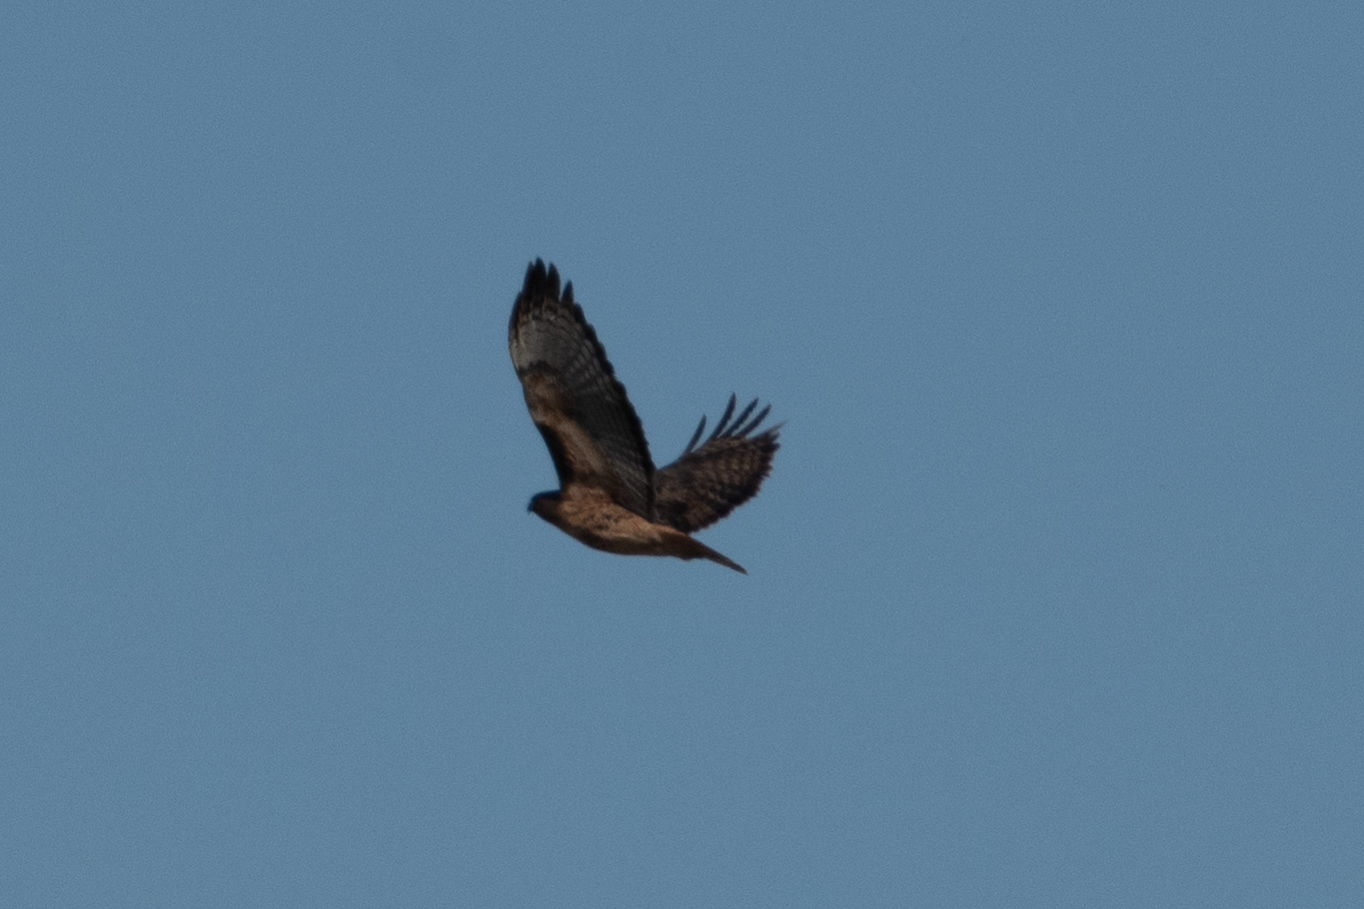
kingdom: Animalia
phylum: Chordata
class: Aves
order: Accipitriformes
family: Accipitridae
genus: Buteo
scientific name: Buteo jamaicensis
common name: Red-tailed hawk
